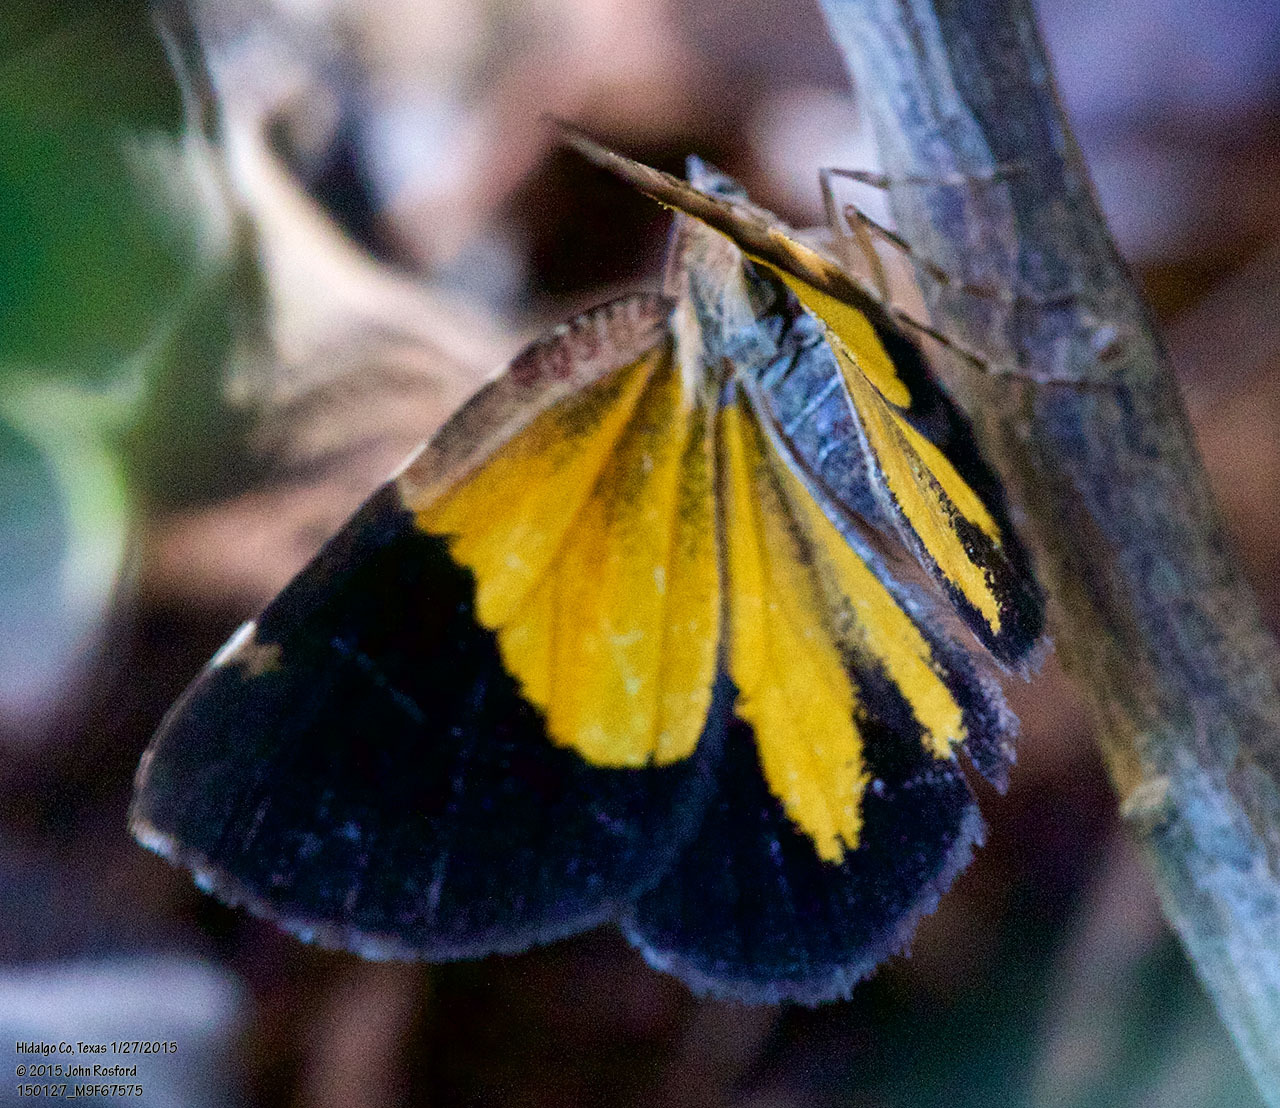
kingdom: Animalia
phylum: Arthropoda
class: Insecta
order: Lepidoptera
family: Geometridae
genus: Heterusia
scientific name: Heterusia atalantata
